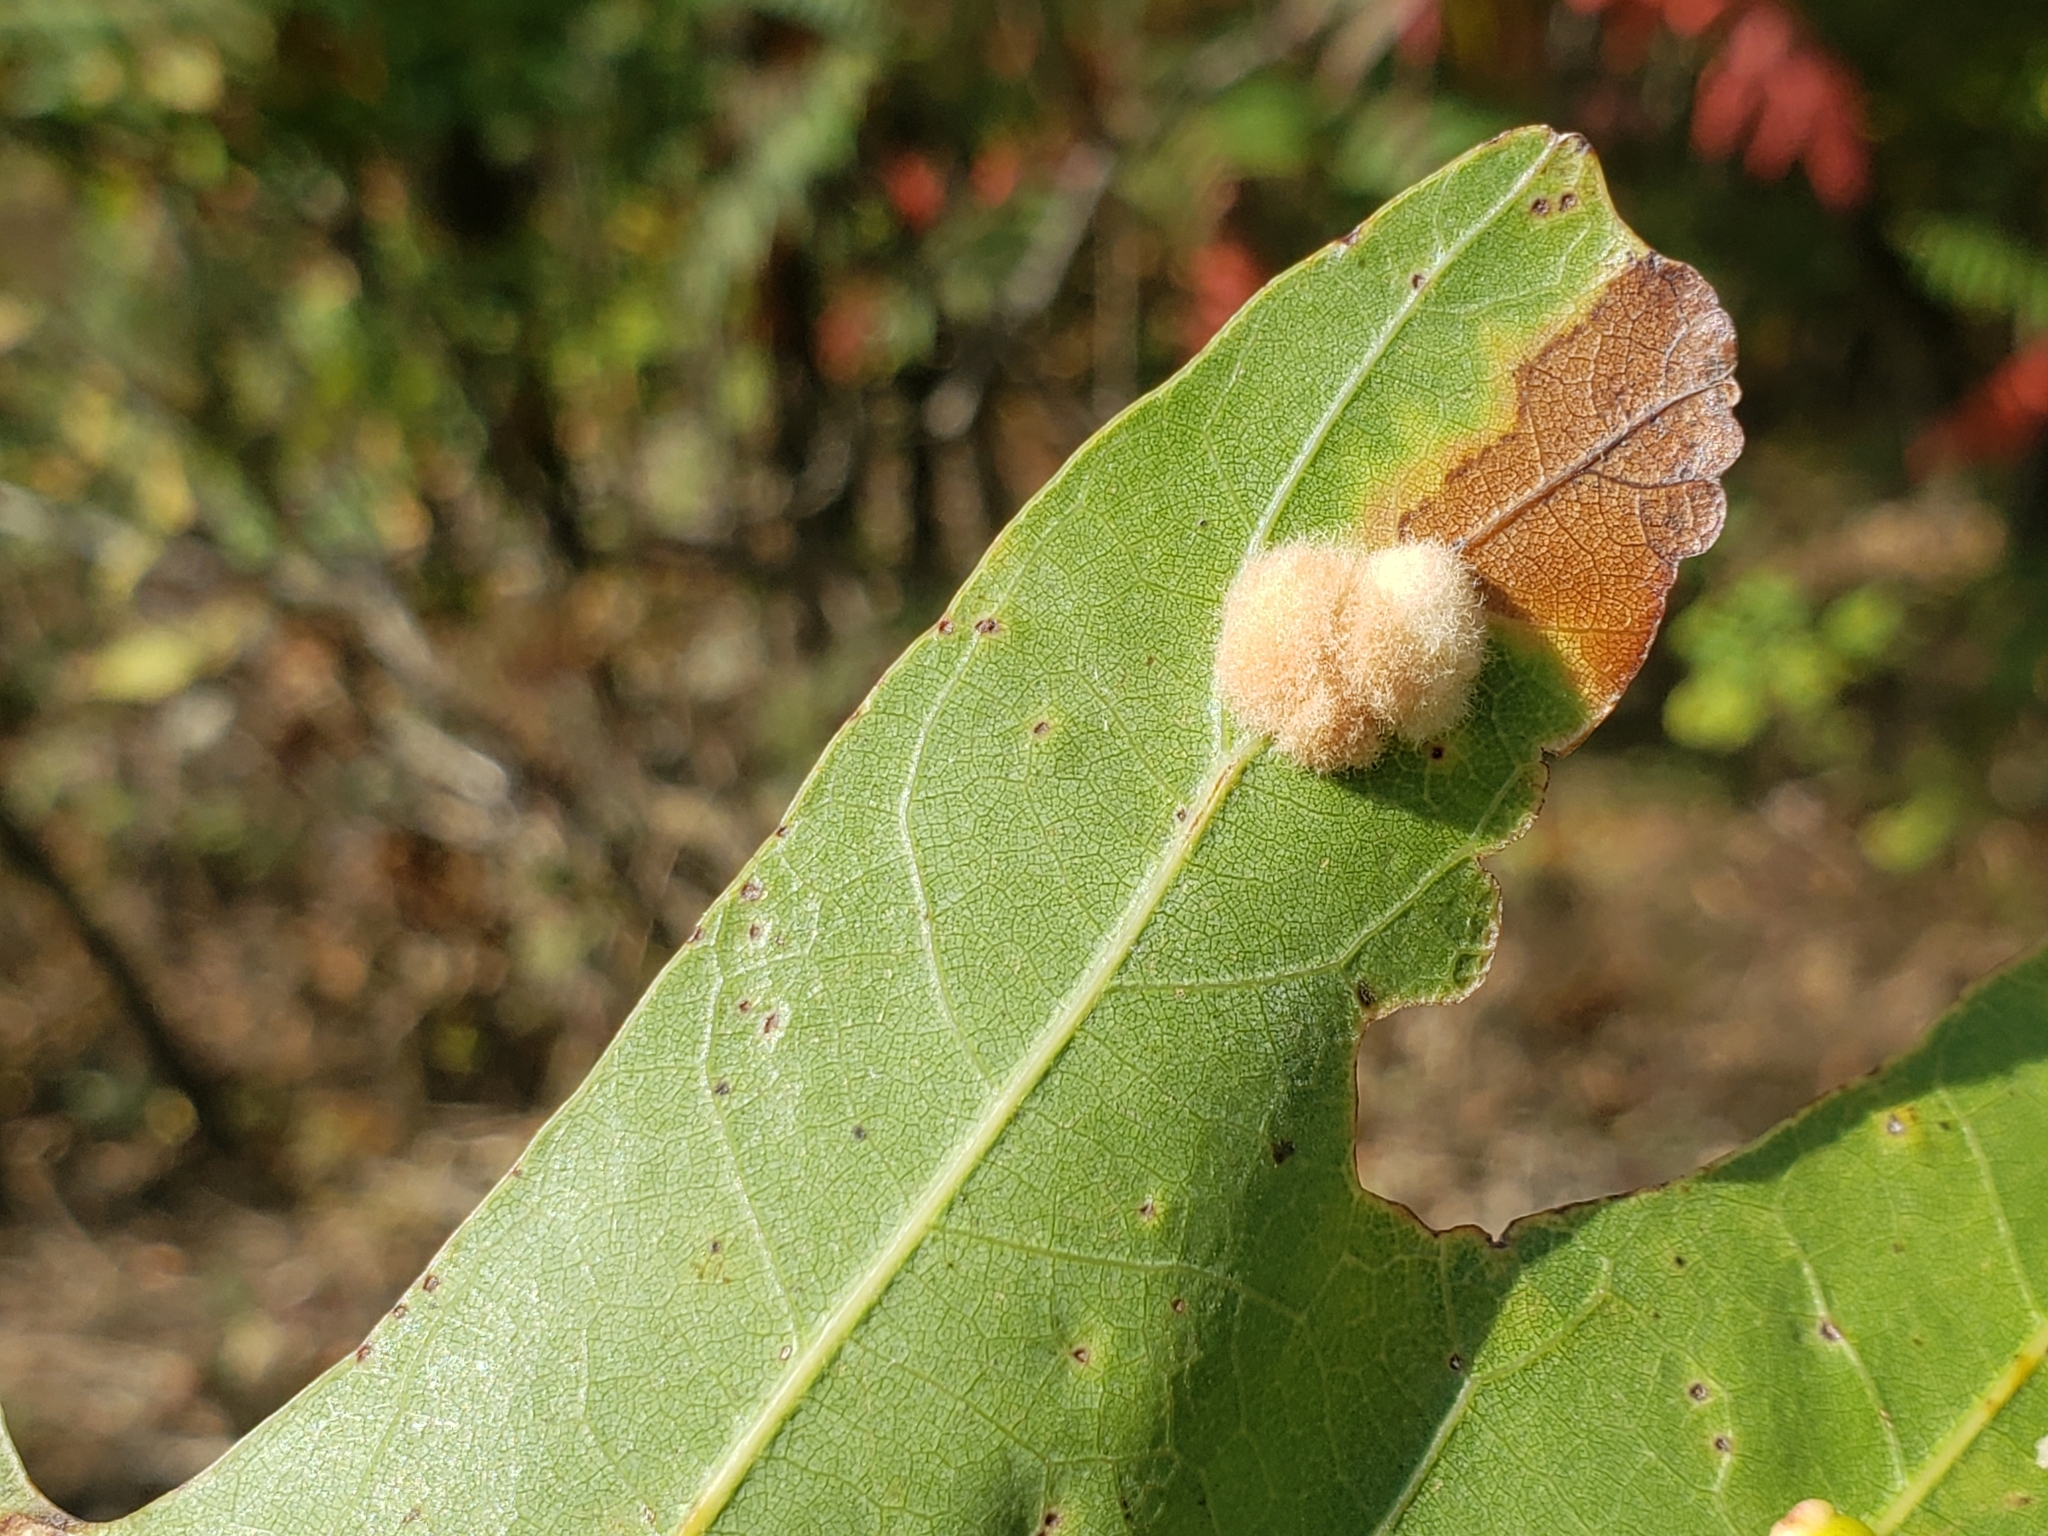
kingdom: Animalia
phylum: Arthropoda
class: Insecta
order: Hymenoptera
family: Cynipidae
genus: Callirhytis
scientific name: Callirhytis
